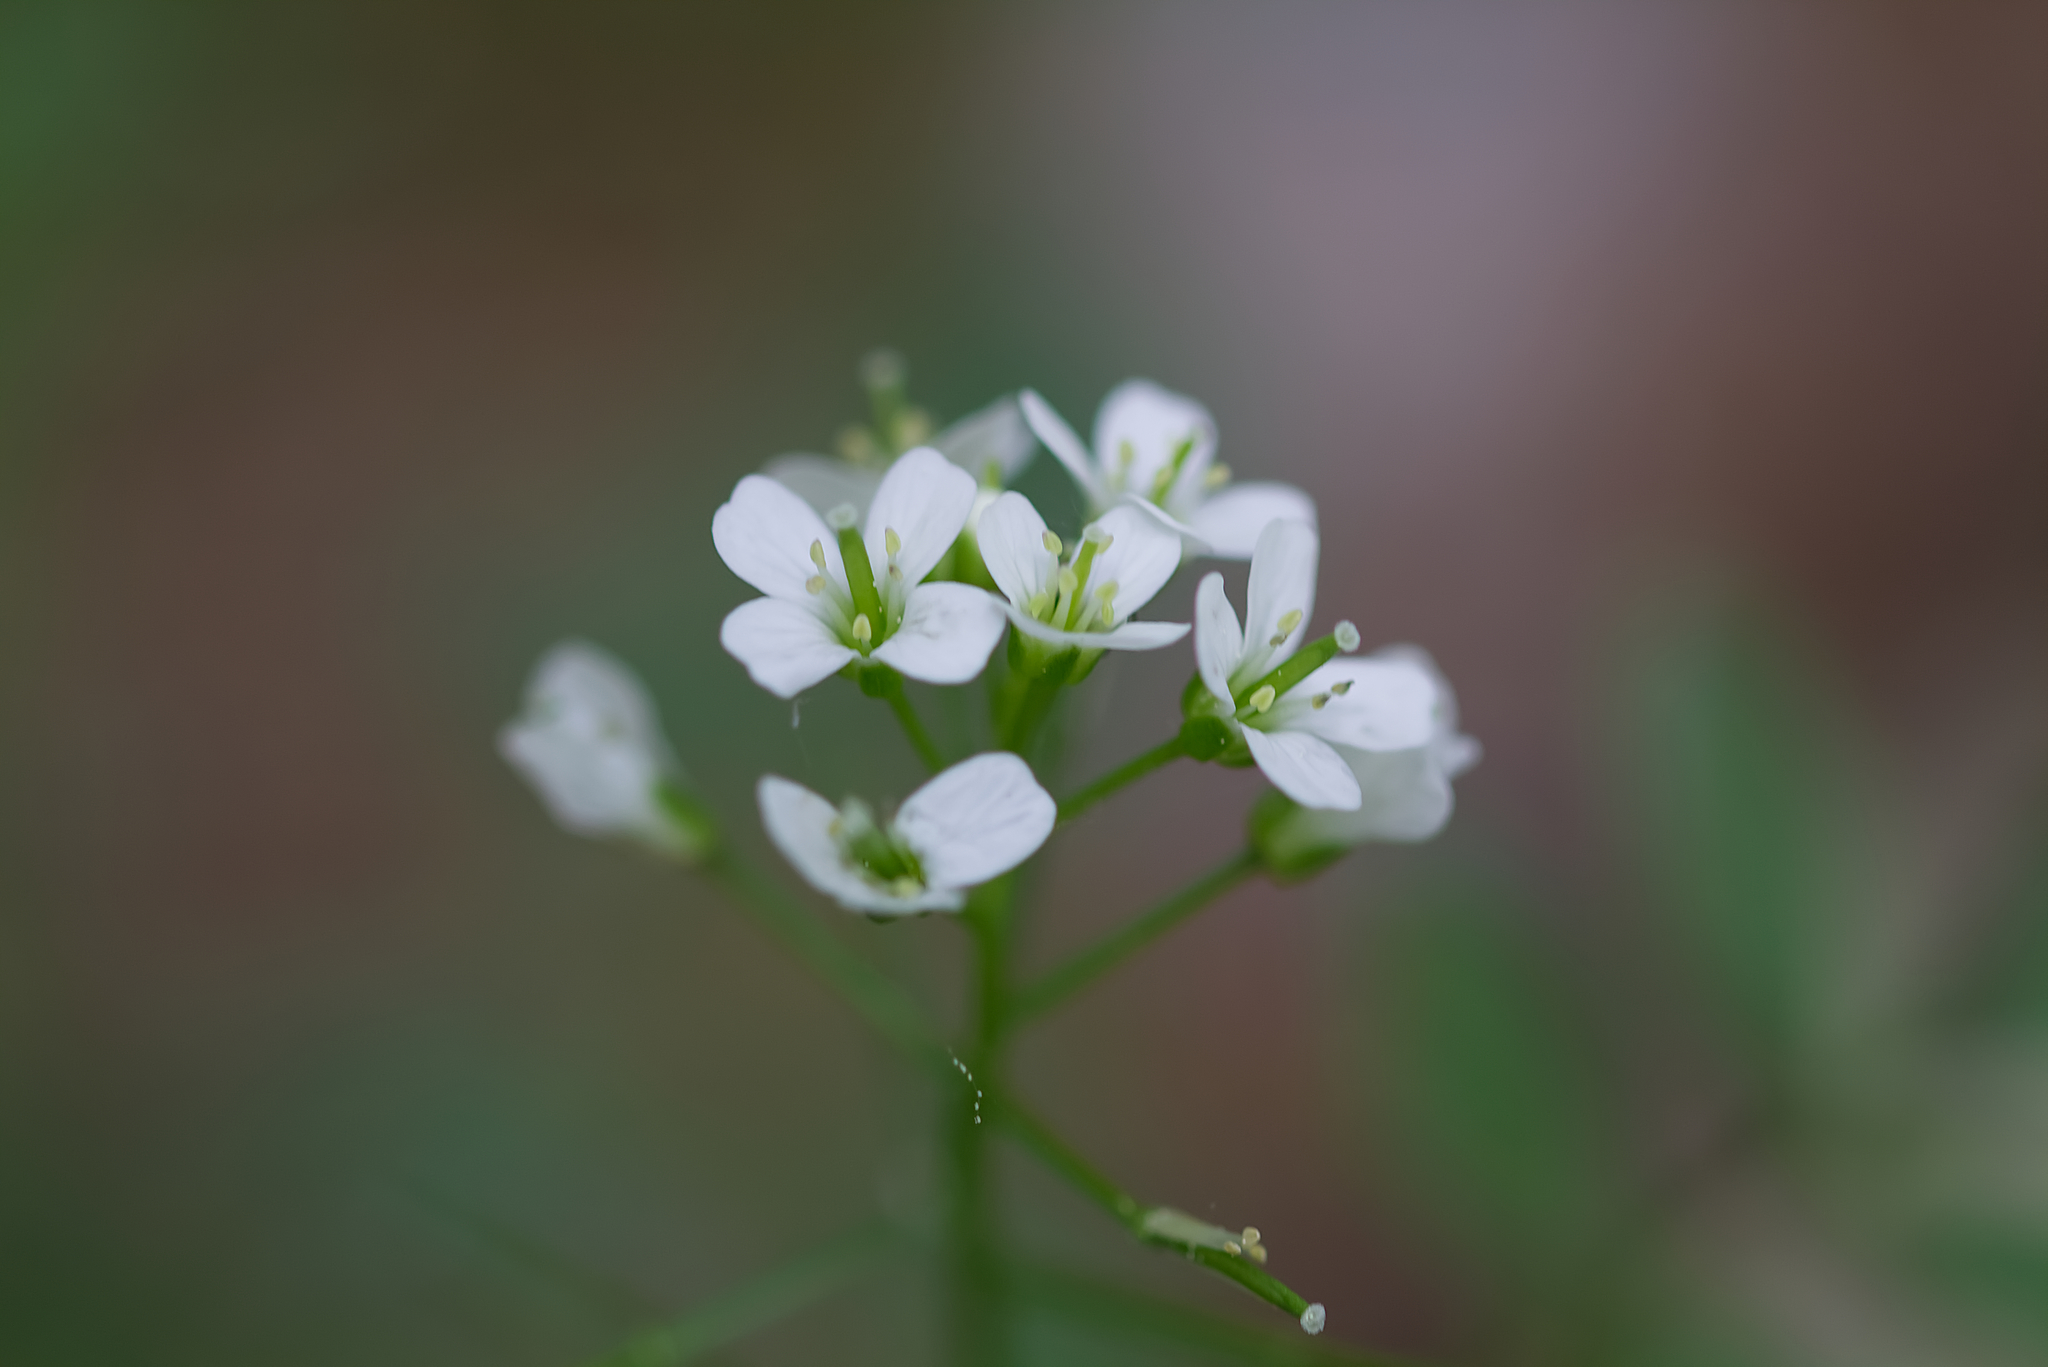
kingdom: Plantae
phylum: Tracheophyta
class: Magnoliopsida
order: Brassicales
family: Brassicaceae
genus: Cardamine
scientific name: Cardamine flexuosa
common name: Woodland bittercress
